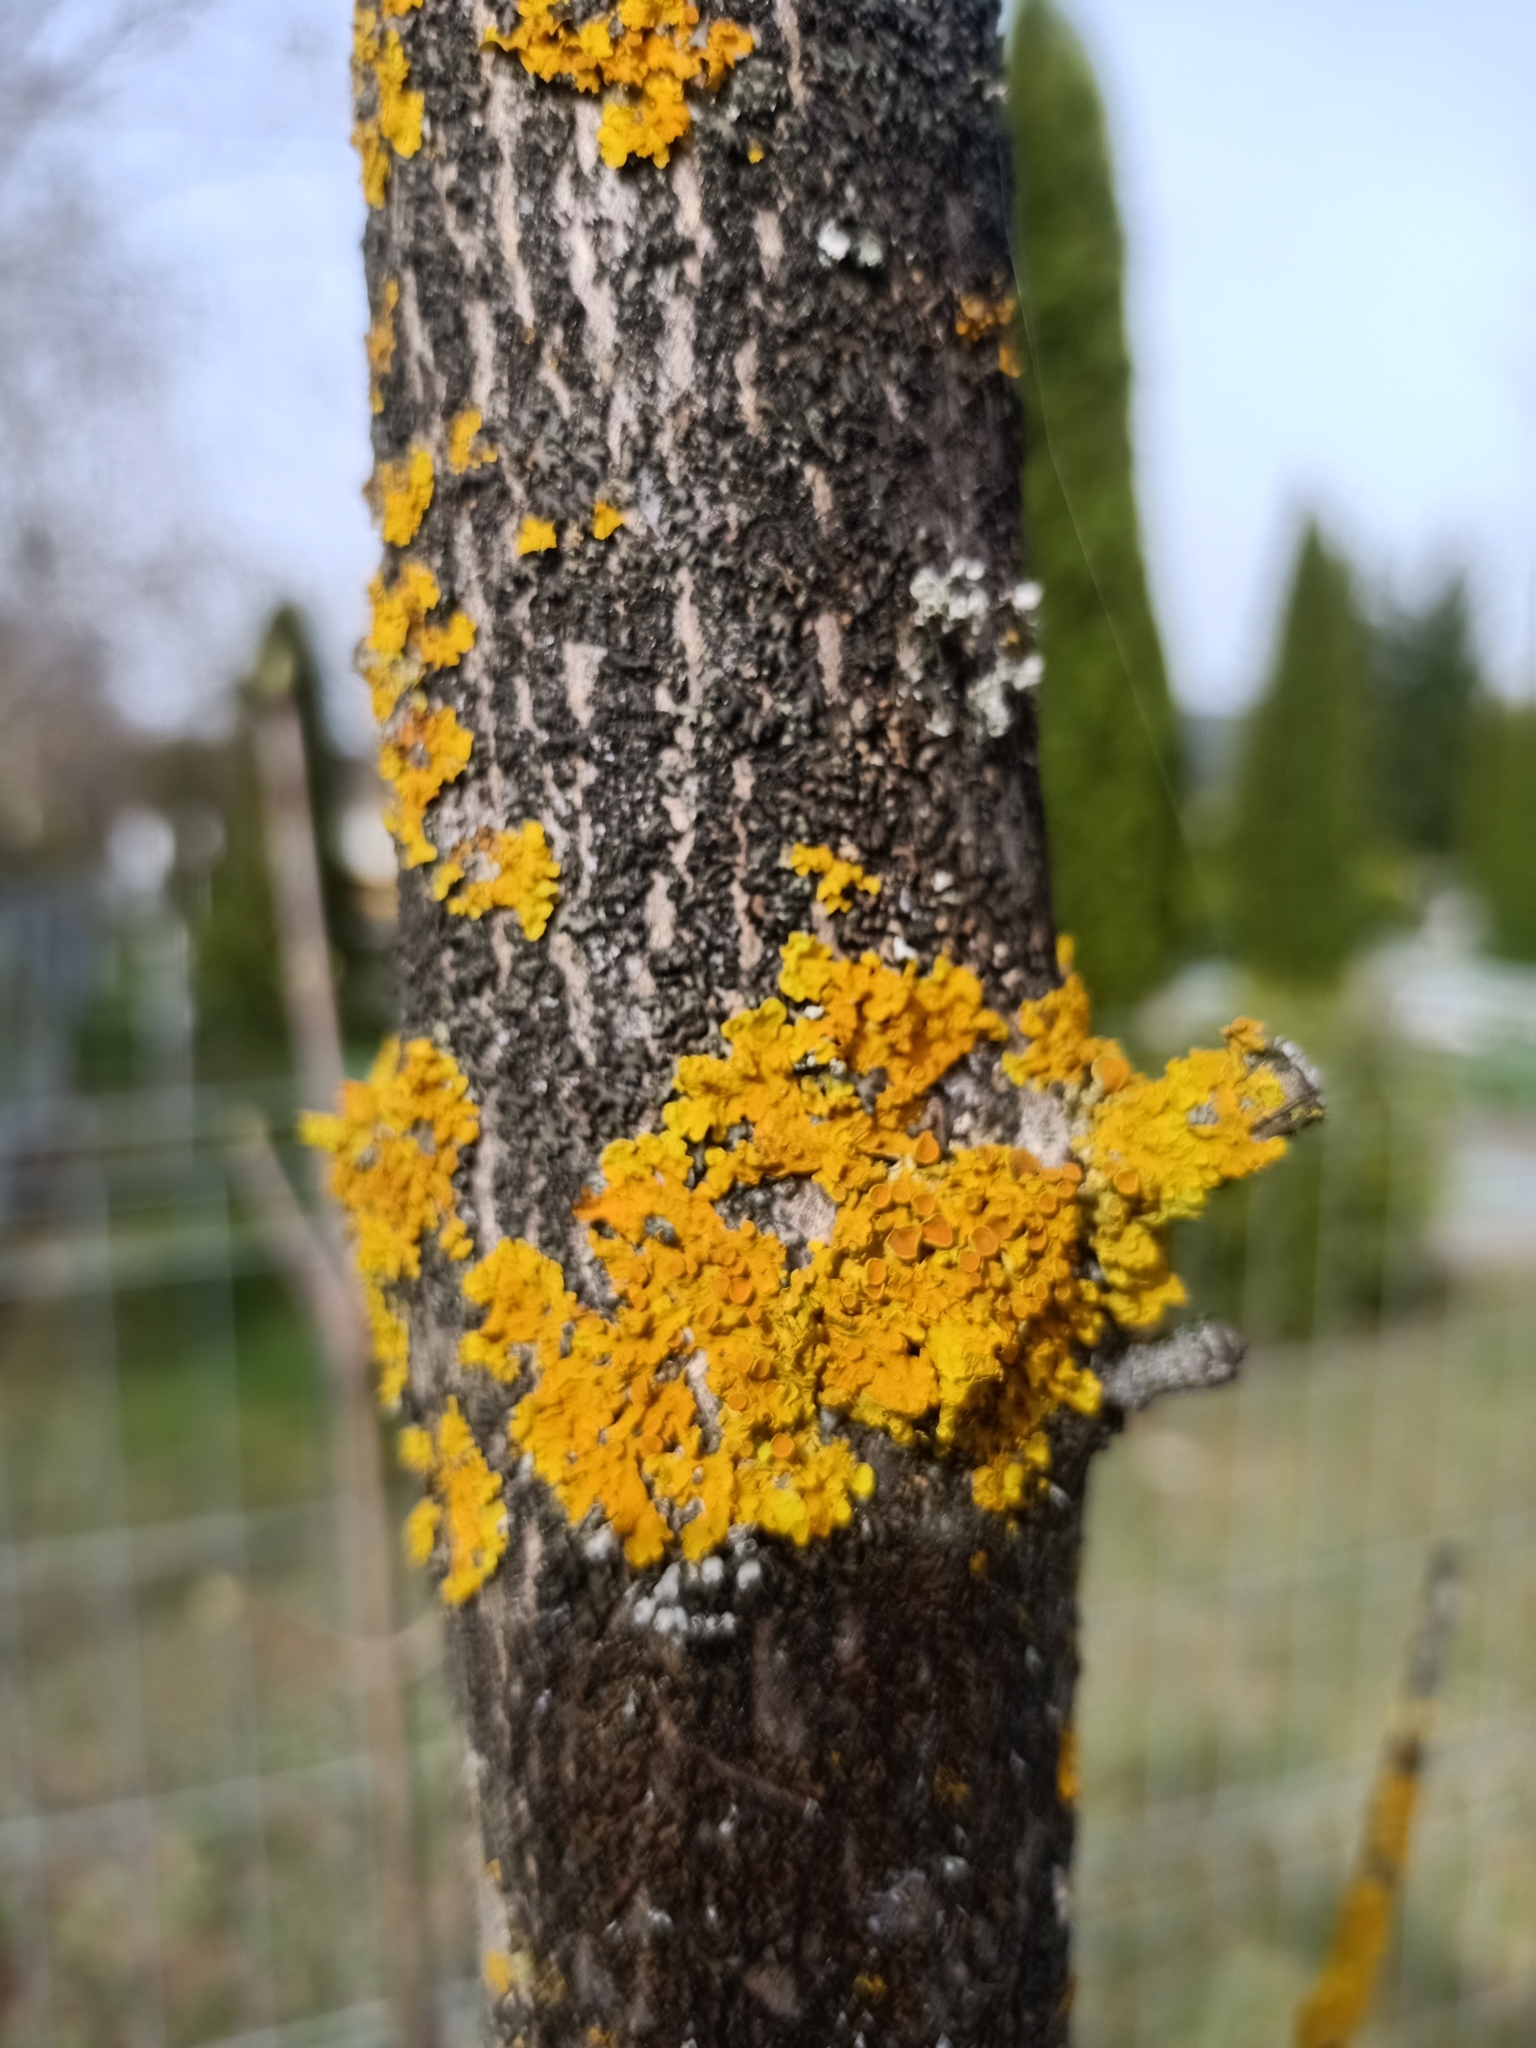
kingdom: Fungi
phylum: Ascomycota
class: Lecanoromycetes
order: Teloschistales
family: Teloschistaceae
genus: Xanthoria
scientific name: Xanthoria parietina
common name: Common orange lichen
